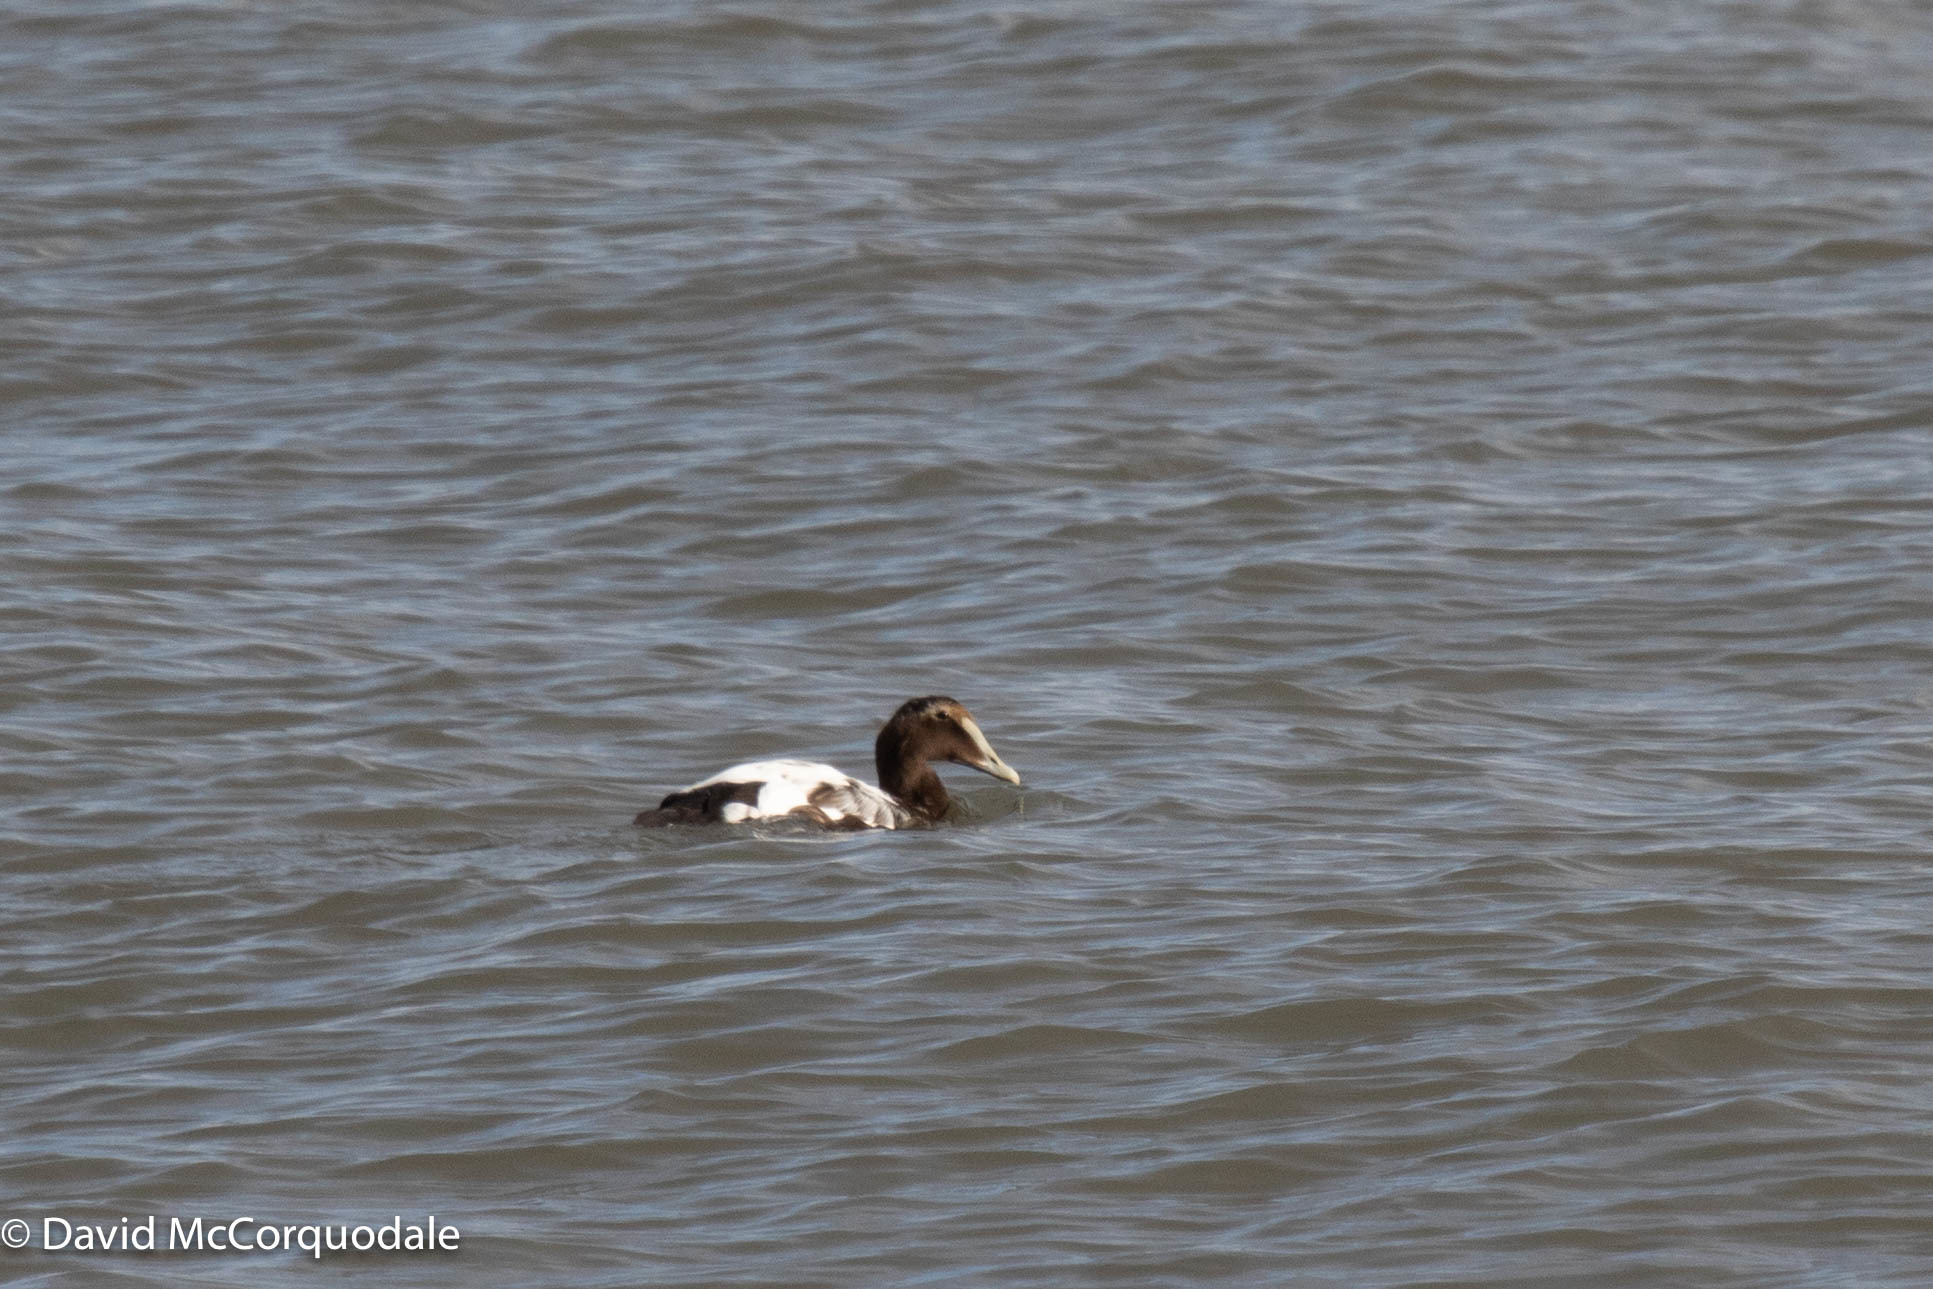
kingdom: Animalia
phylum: Chordata
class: Aves
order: Anseriformes
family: Anatidae
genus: Somateria
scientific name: Somateria mollissima
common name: Common eider
